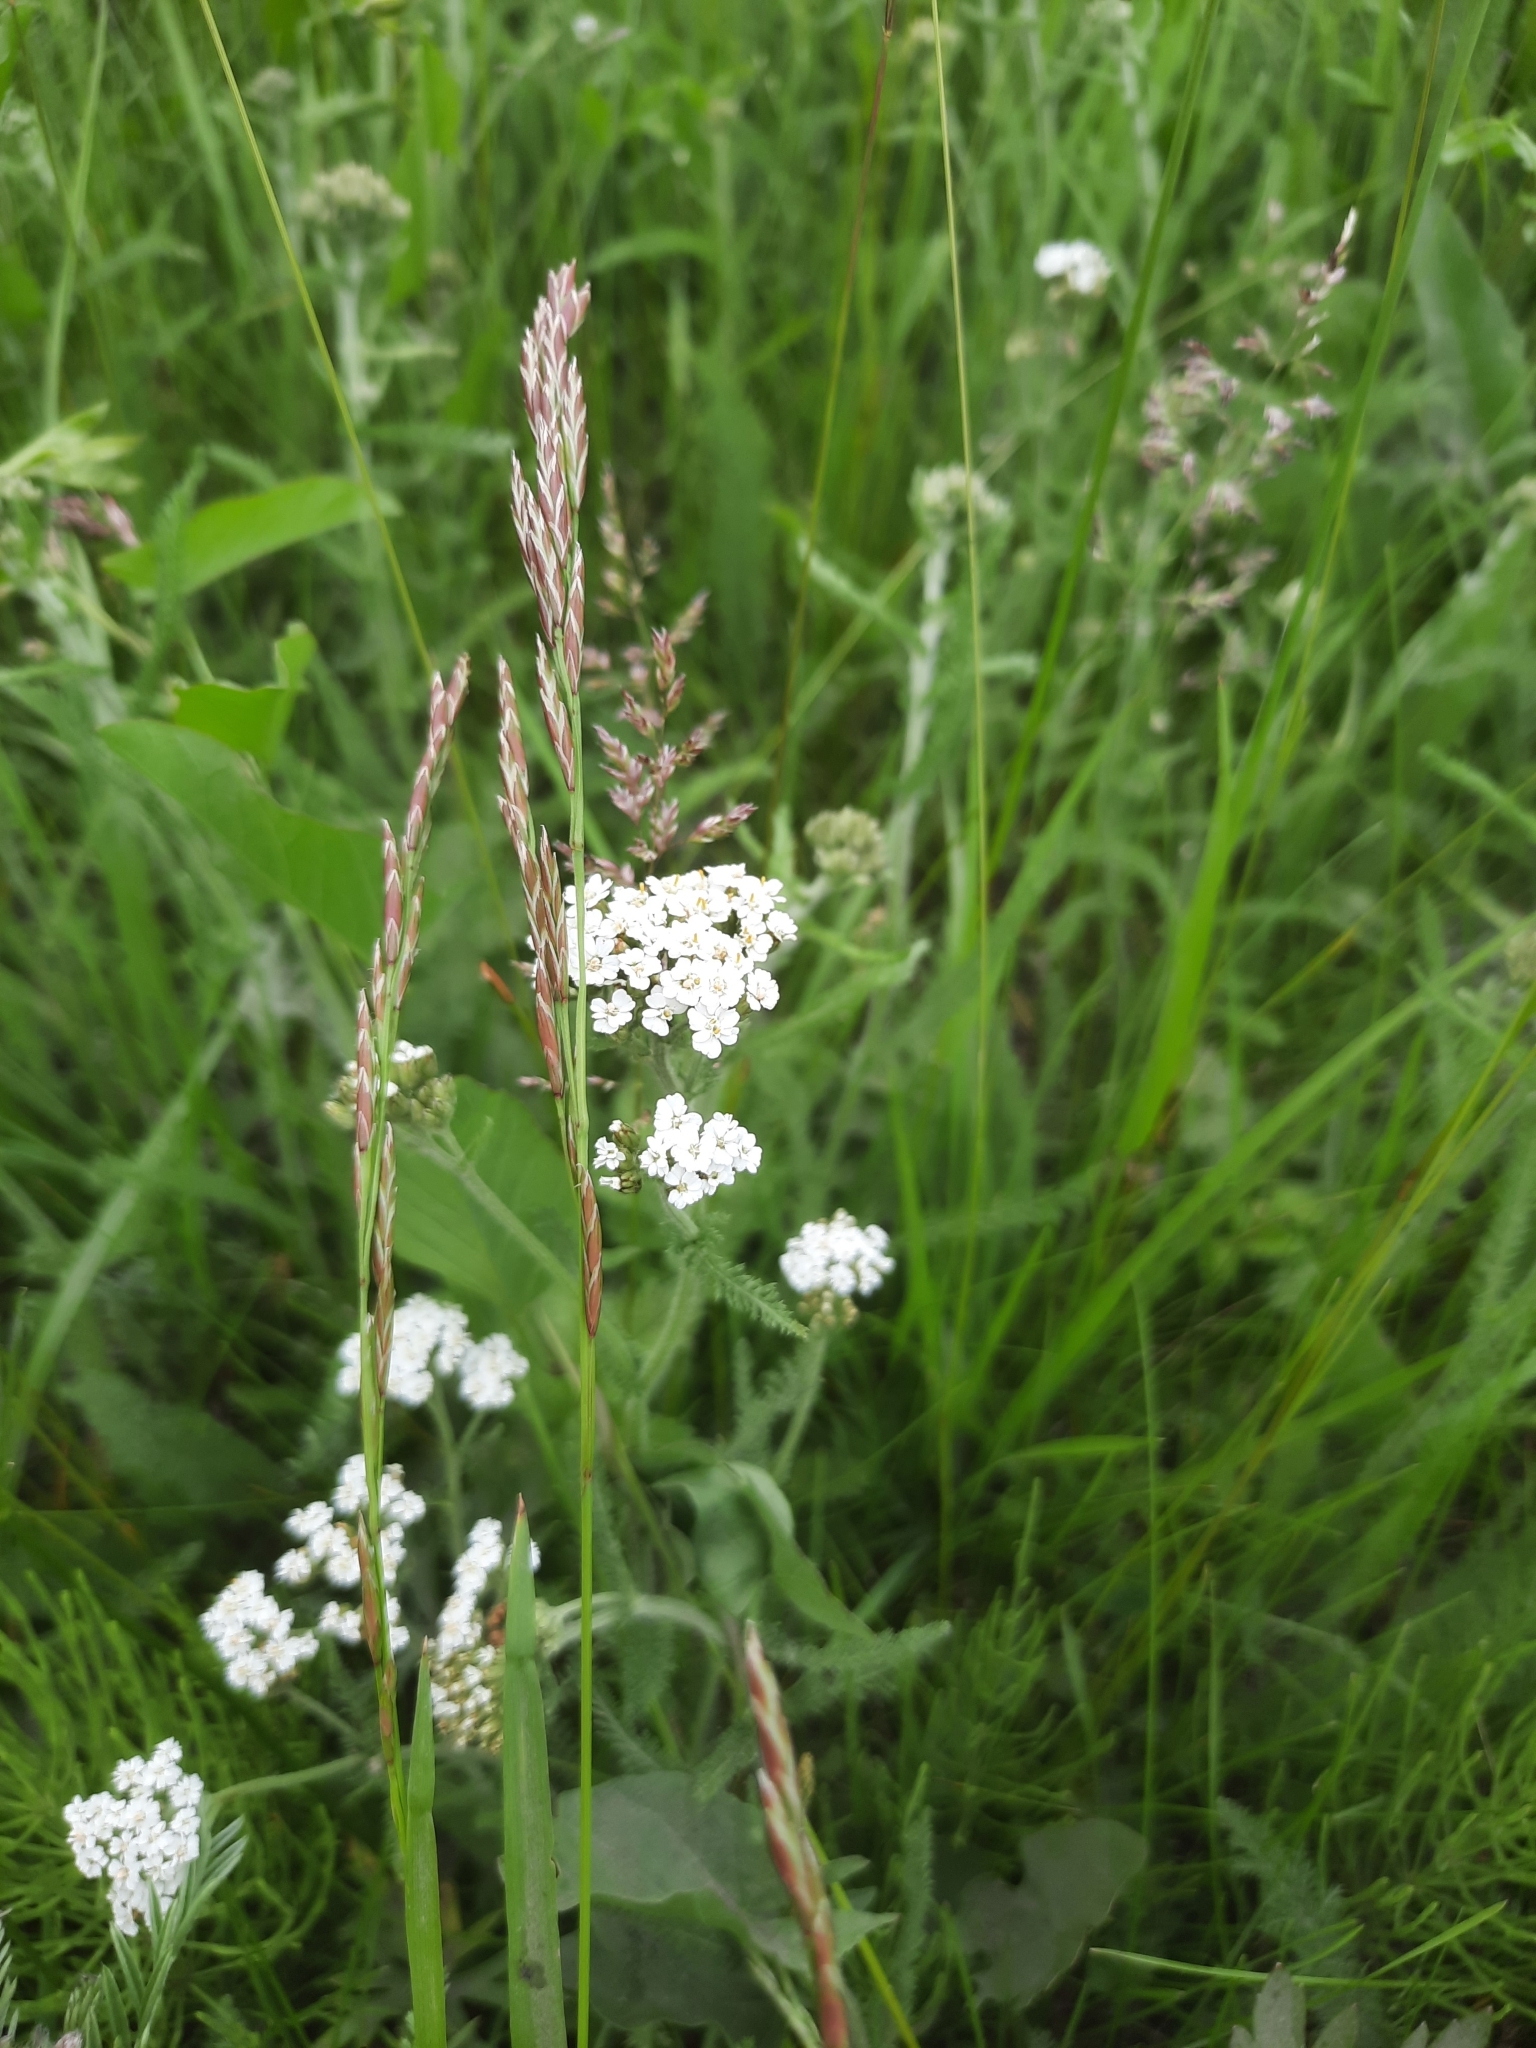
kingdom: Plantae
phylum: Tracheophyta
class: Magnoliopsida
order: Asterales
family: Asteraceae
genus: Achillea
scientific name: Achillea millefolium
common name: Yarrow
